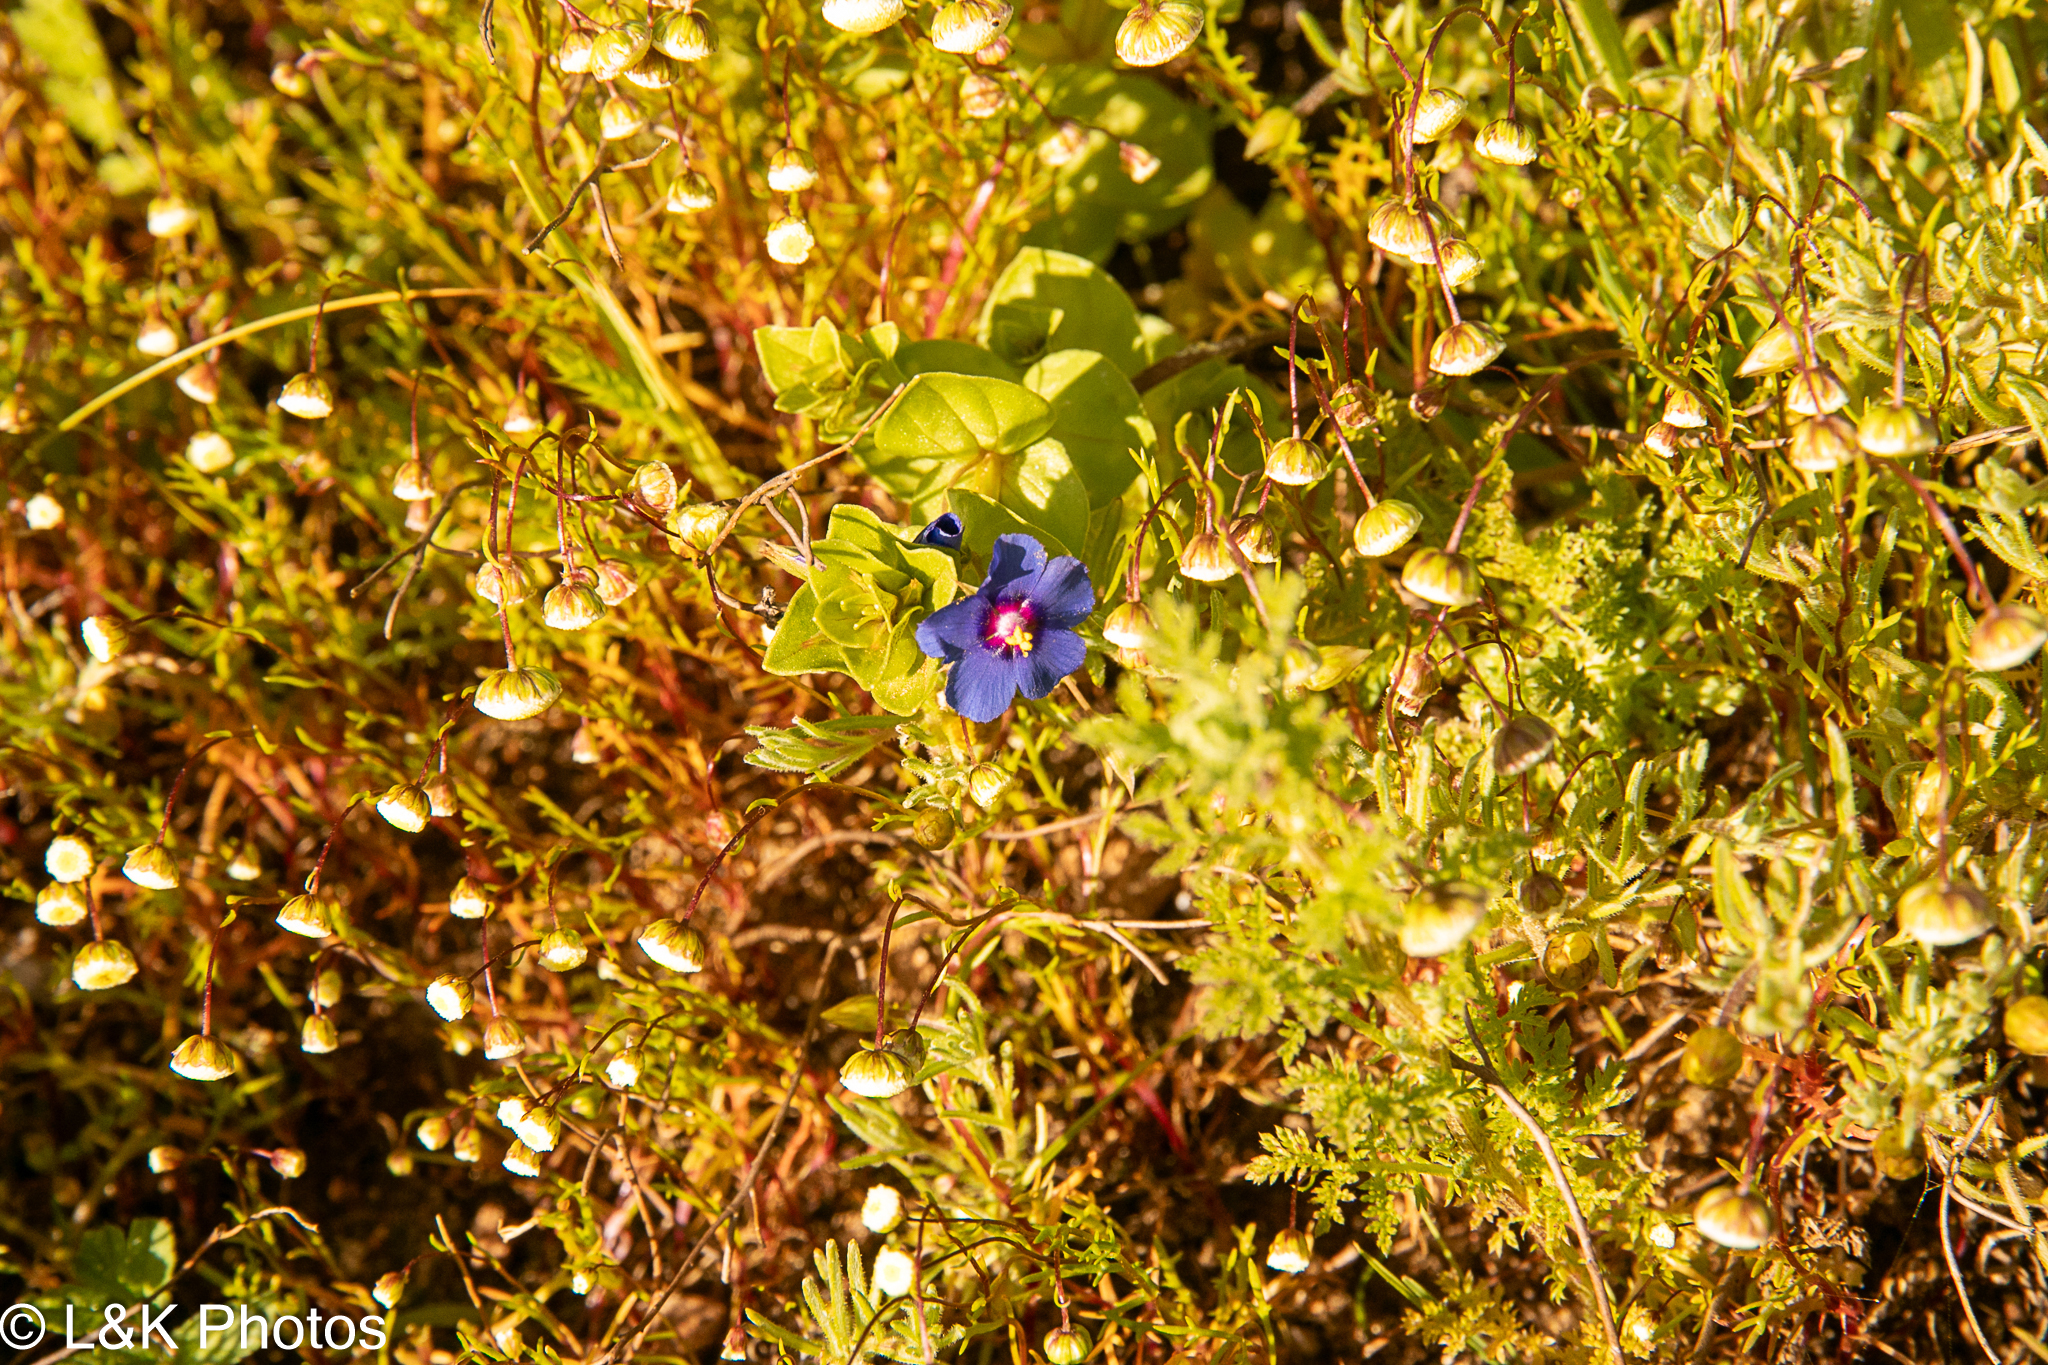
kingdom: Plantae
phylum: Tracheophyta
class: Magnoliopsida
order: Ericales
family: Primulaceae
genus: Lysimachia
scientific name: Lysimachia loeflingii
